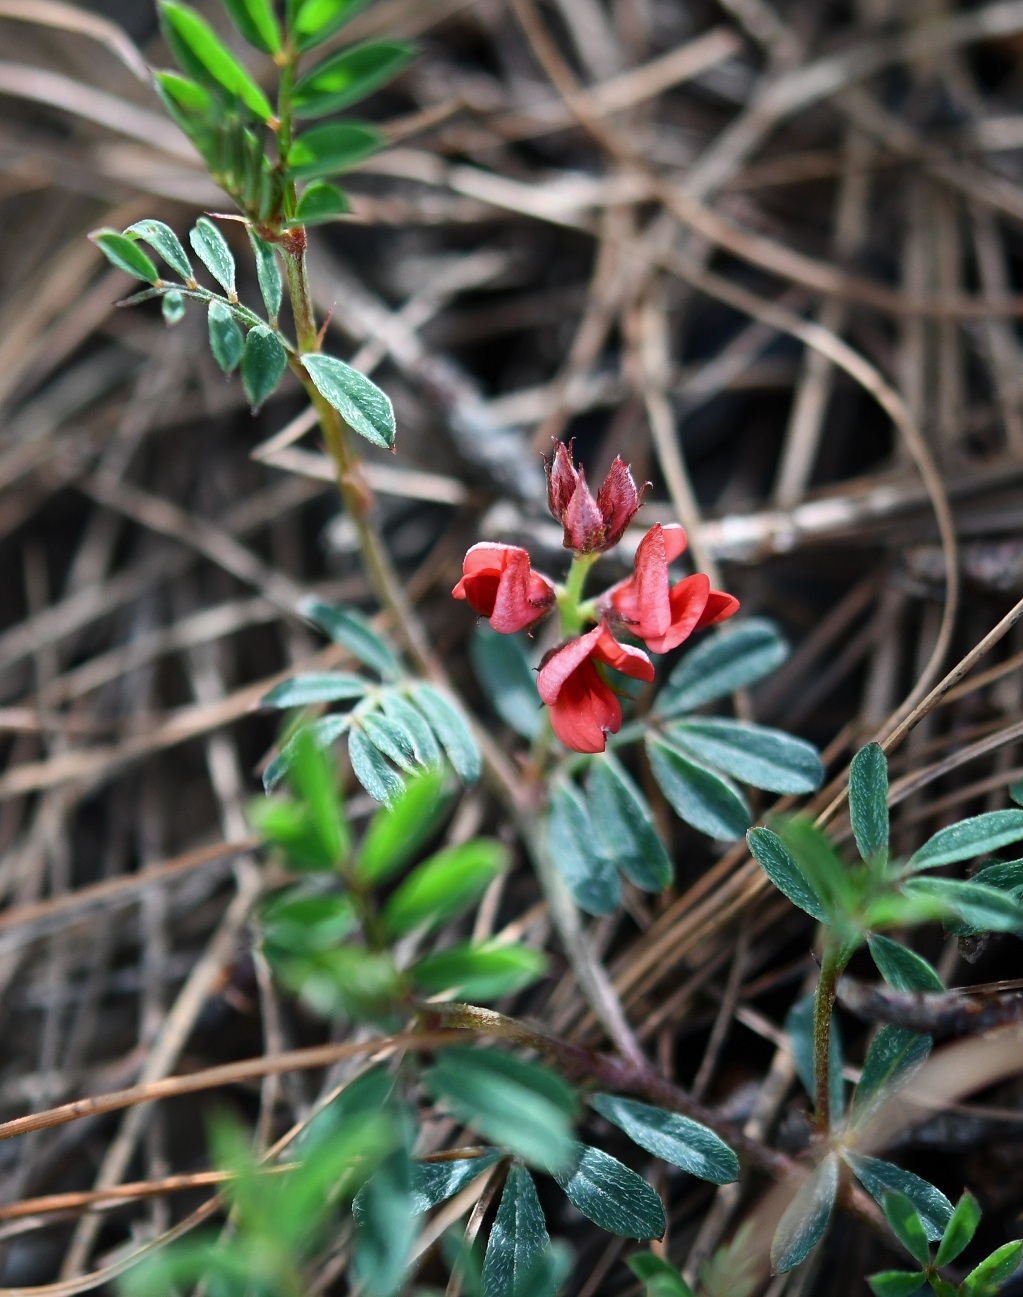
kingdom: Plantae
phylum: Tracheophyta
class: Magnoliopsida
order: Fabales
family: Fabaceae
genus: Indigofera
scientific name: Indigofera miniata
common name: Coast indigo
